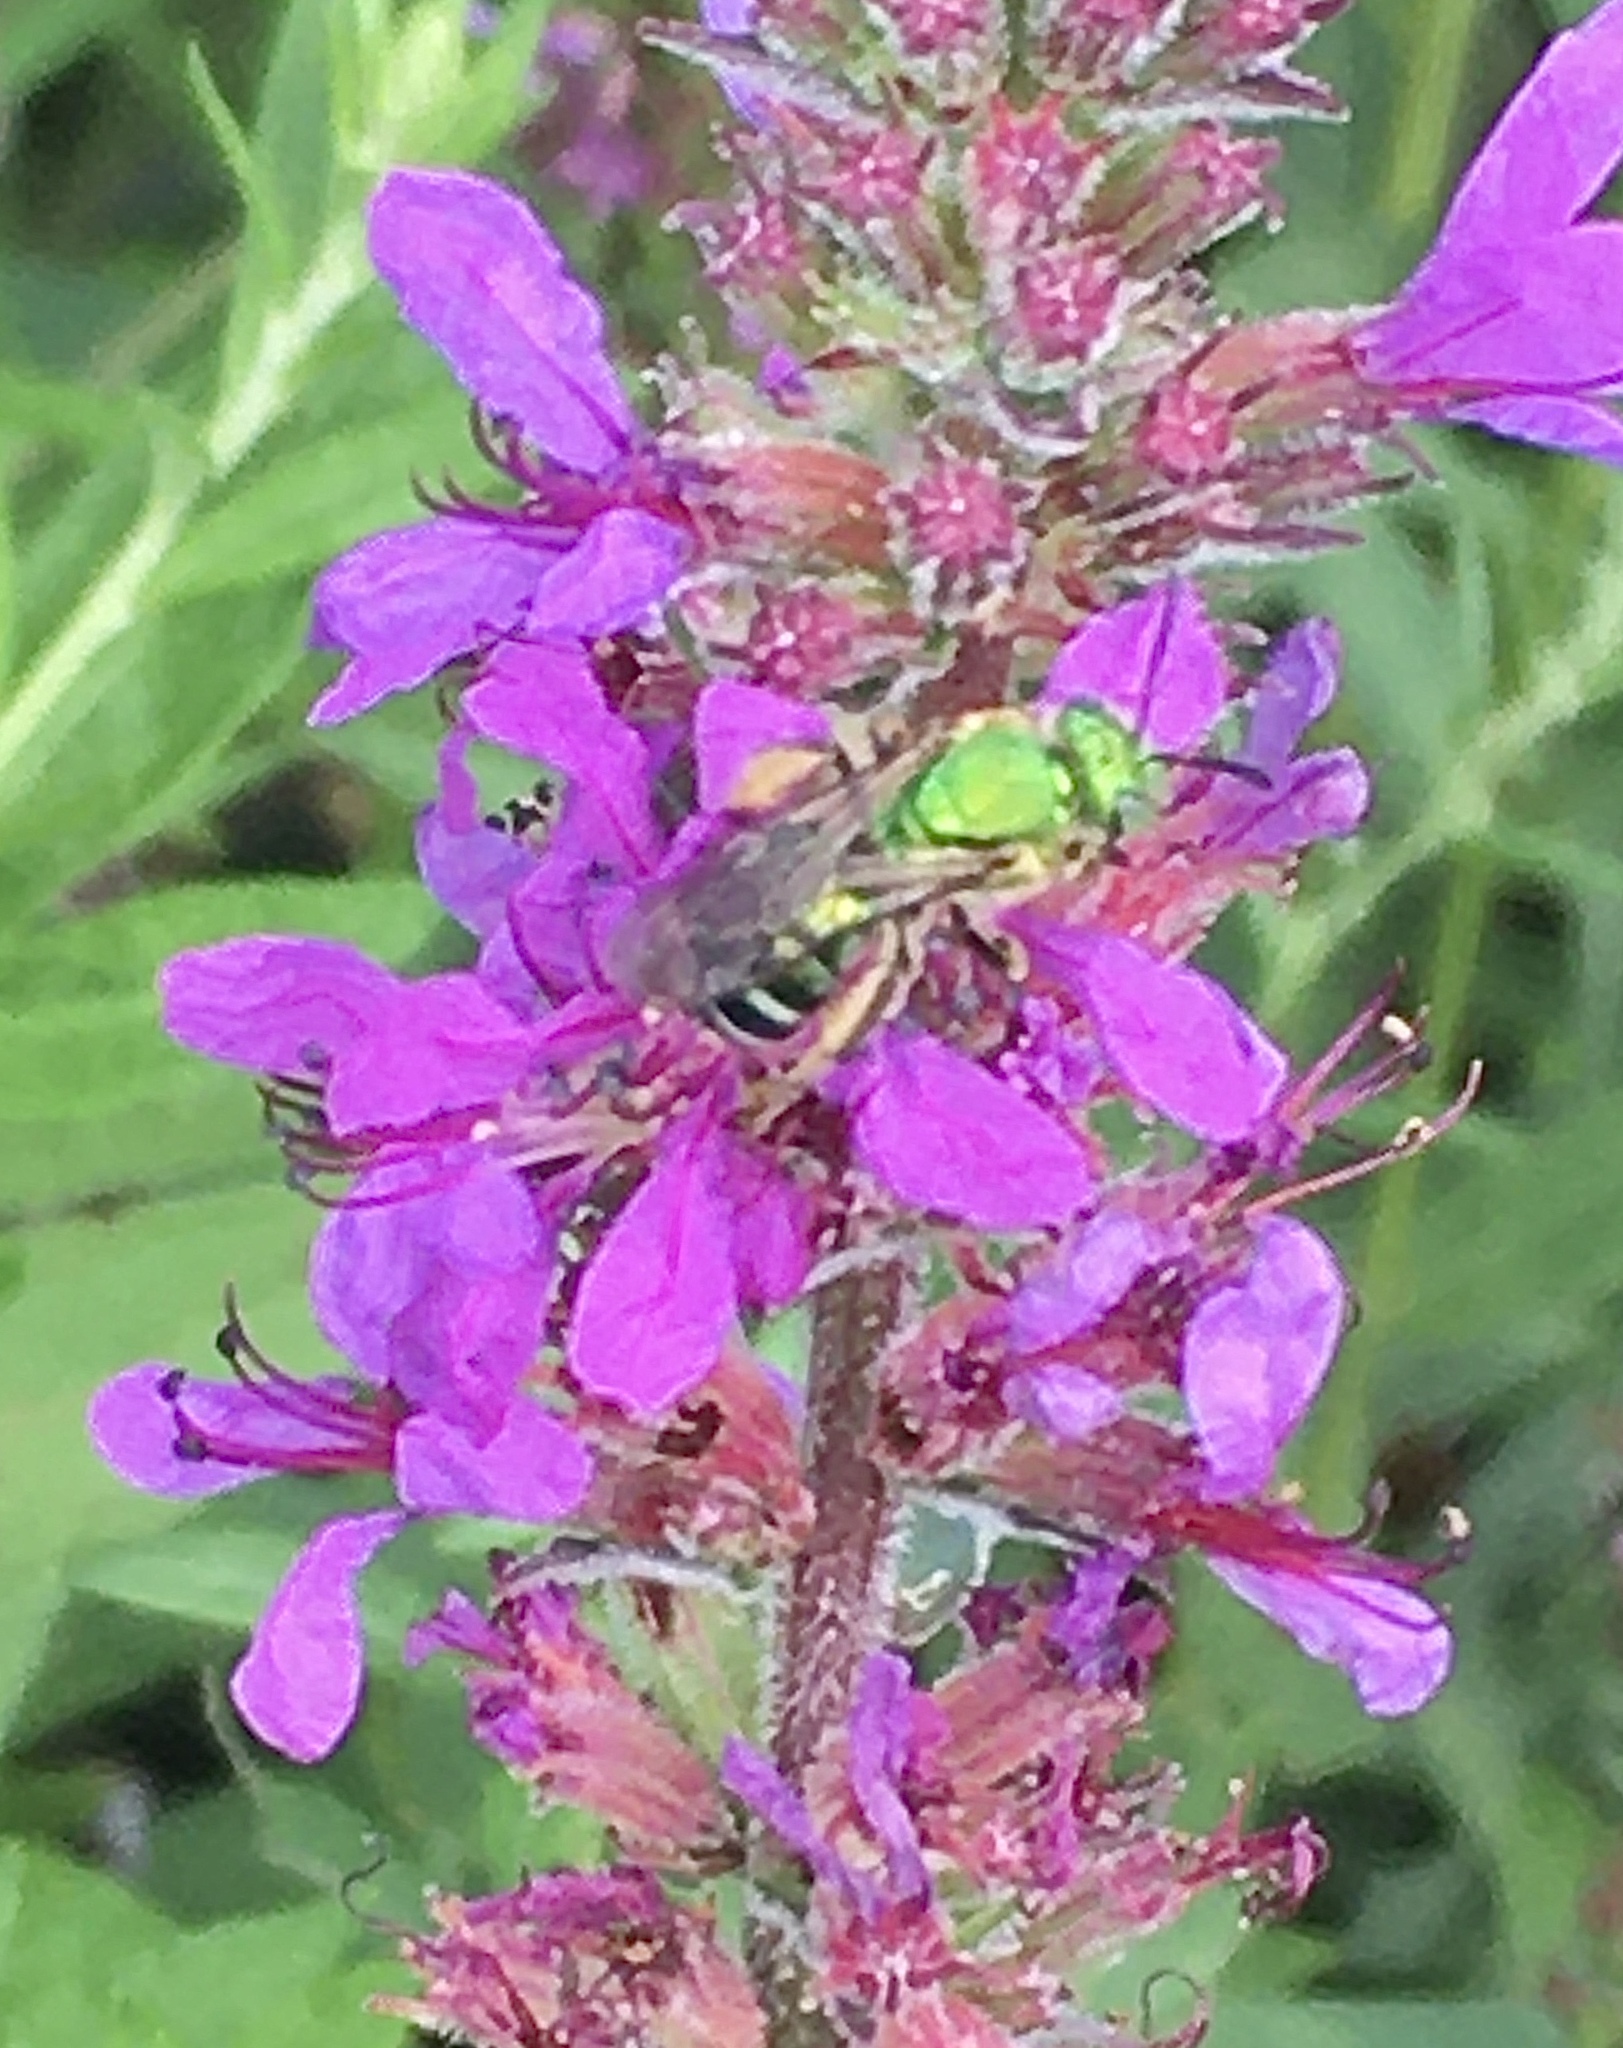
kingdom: Animalia
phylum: Arthropoda
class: Insecta
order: Hymenoptera
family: Halictidae
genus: Agapostemon
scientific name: Agapostemon
